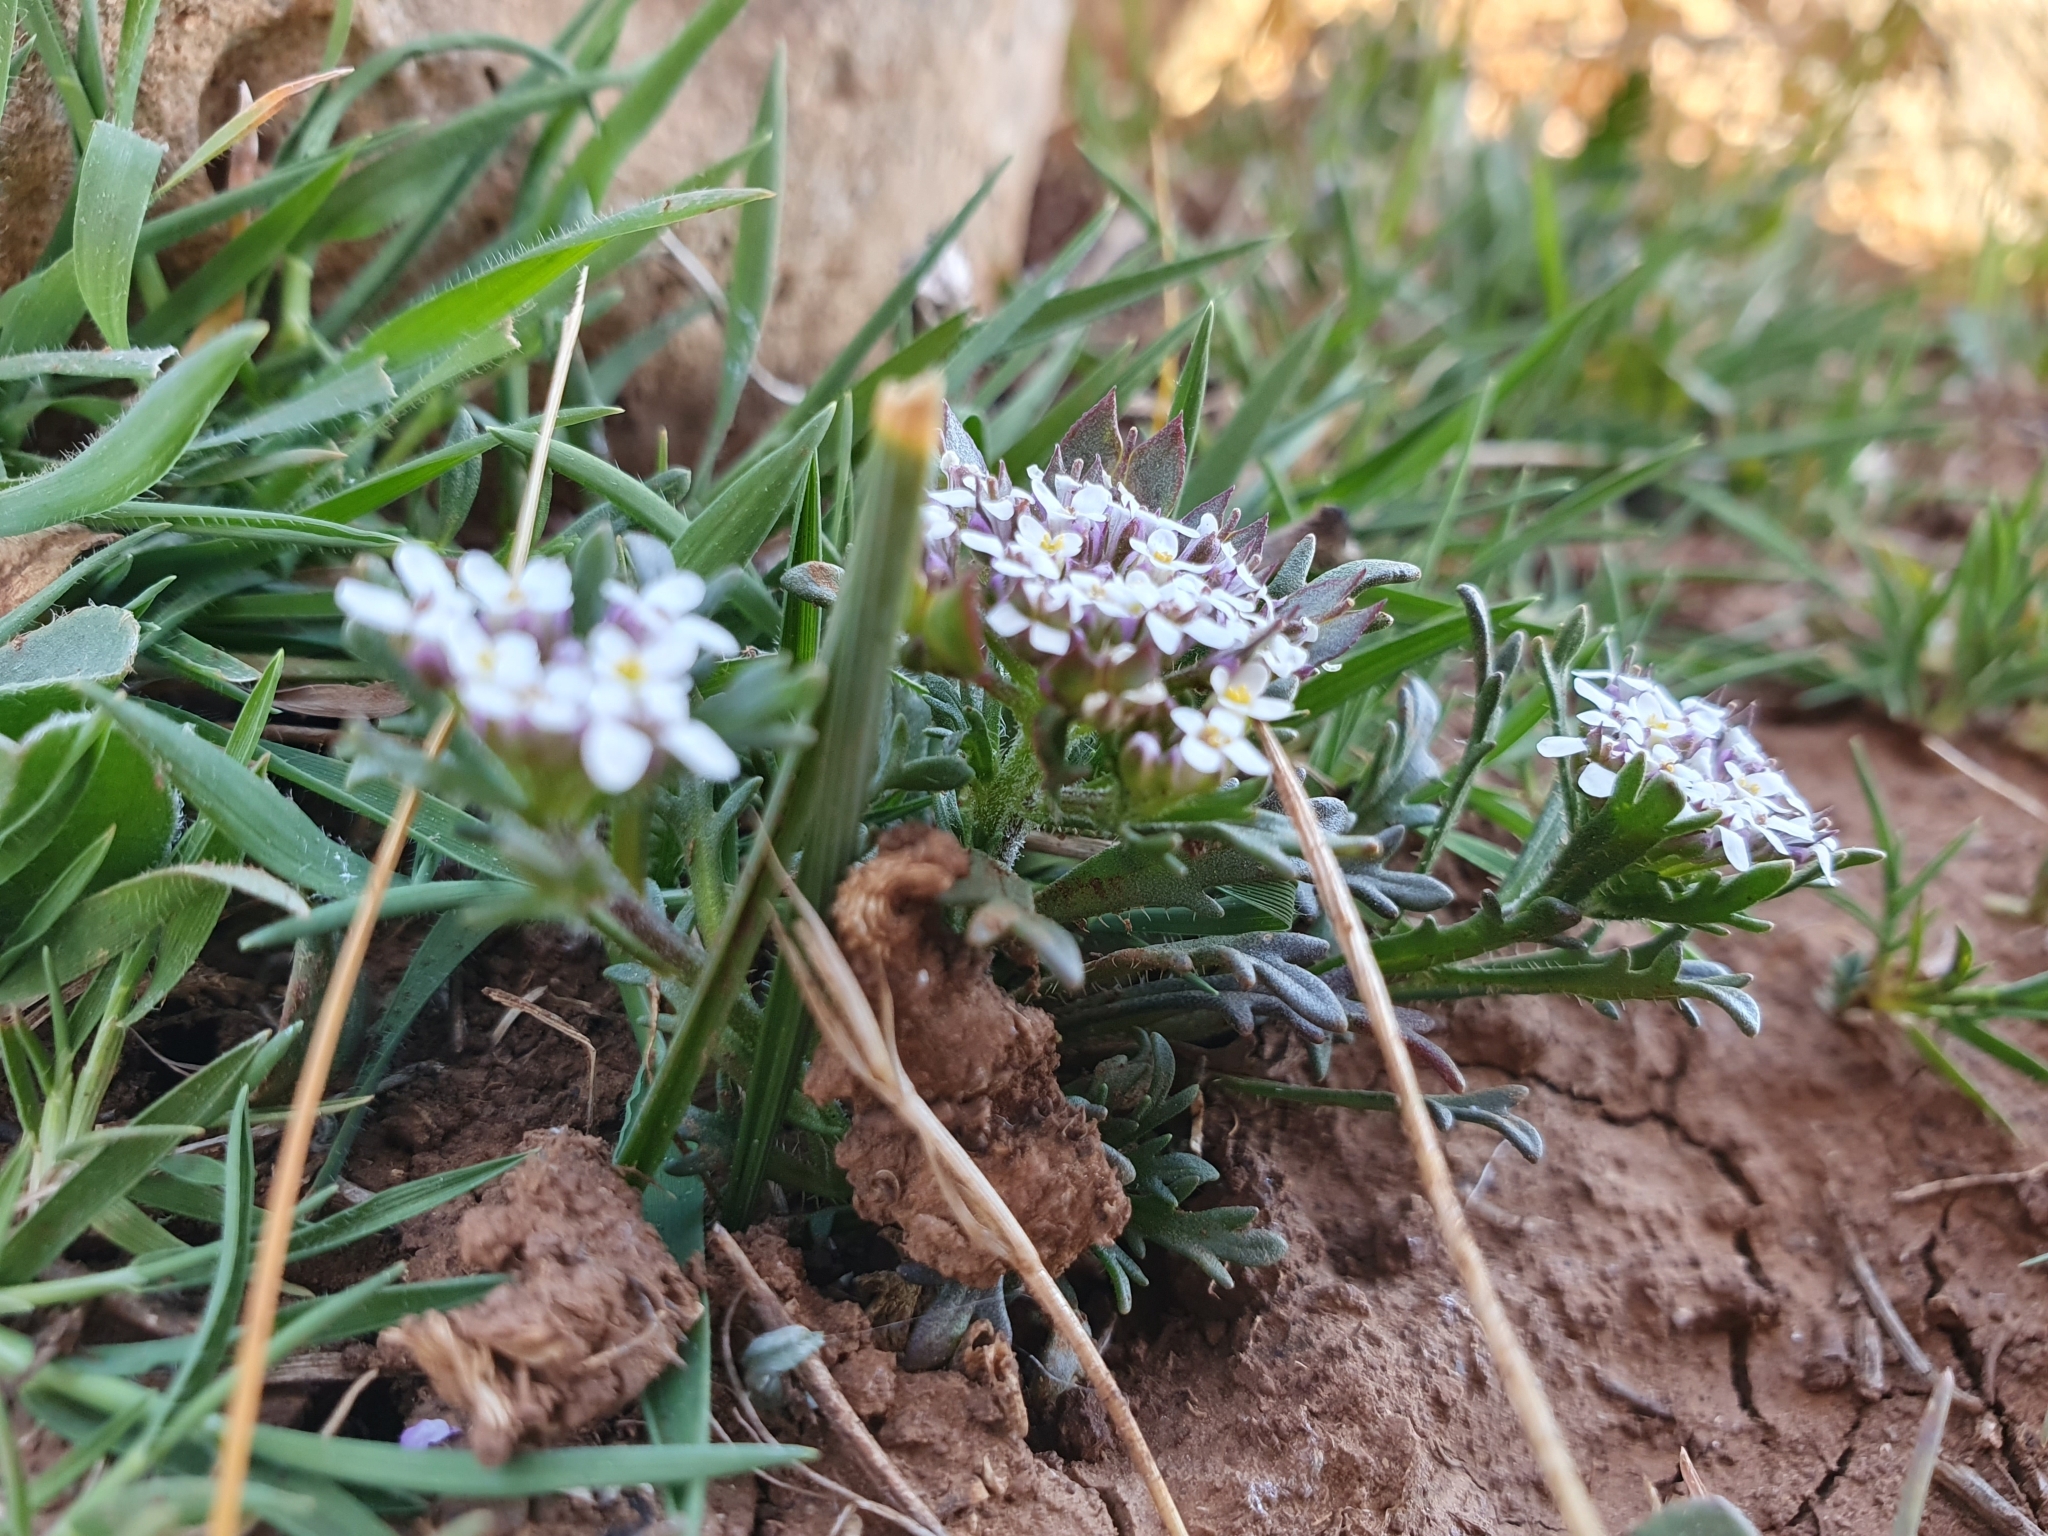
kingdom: Plantae
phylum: Tracheophyta
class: Magnoliopsida
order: Brassicales
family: Brassicaceae
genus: Iberis
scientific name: Iberis odorata
